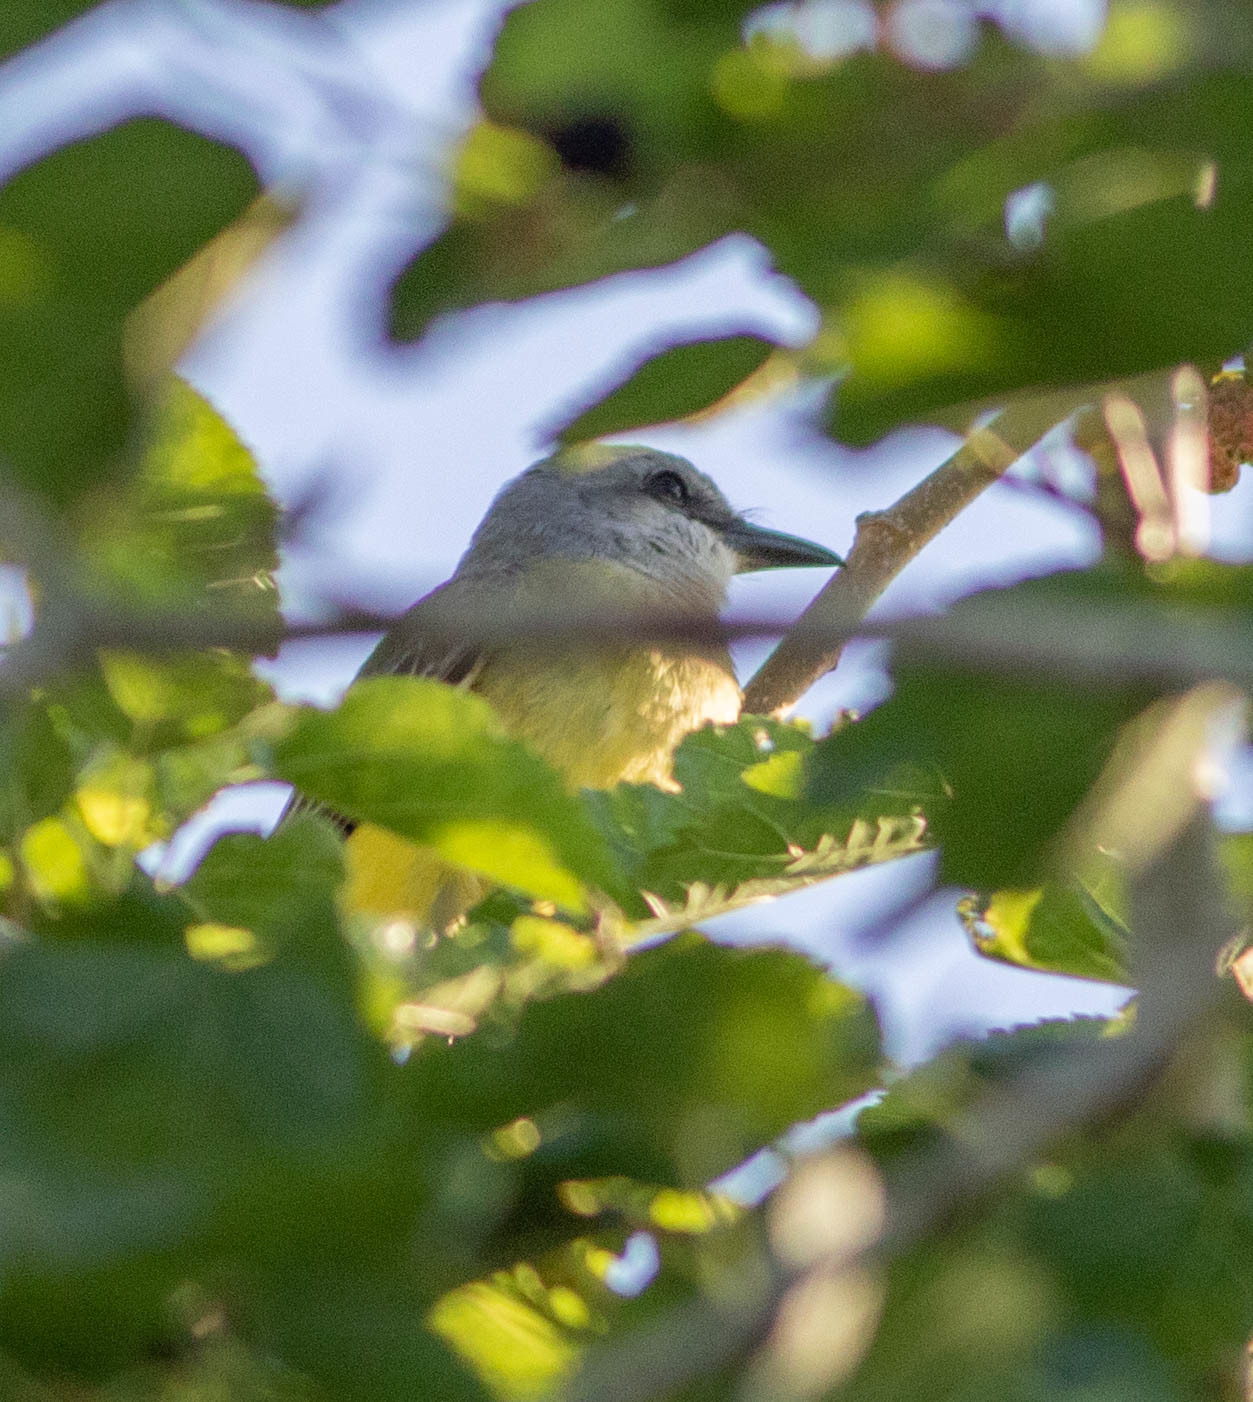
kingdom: Animalia
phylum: Chordata
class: Aves
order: Passeriformes
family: Tyrannidae
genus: Tyrannus
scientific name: Tyrannus verticalis
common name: Western kingbird
